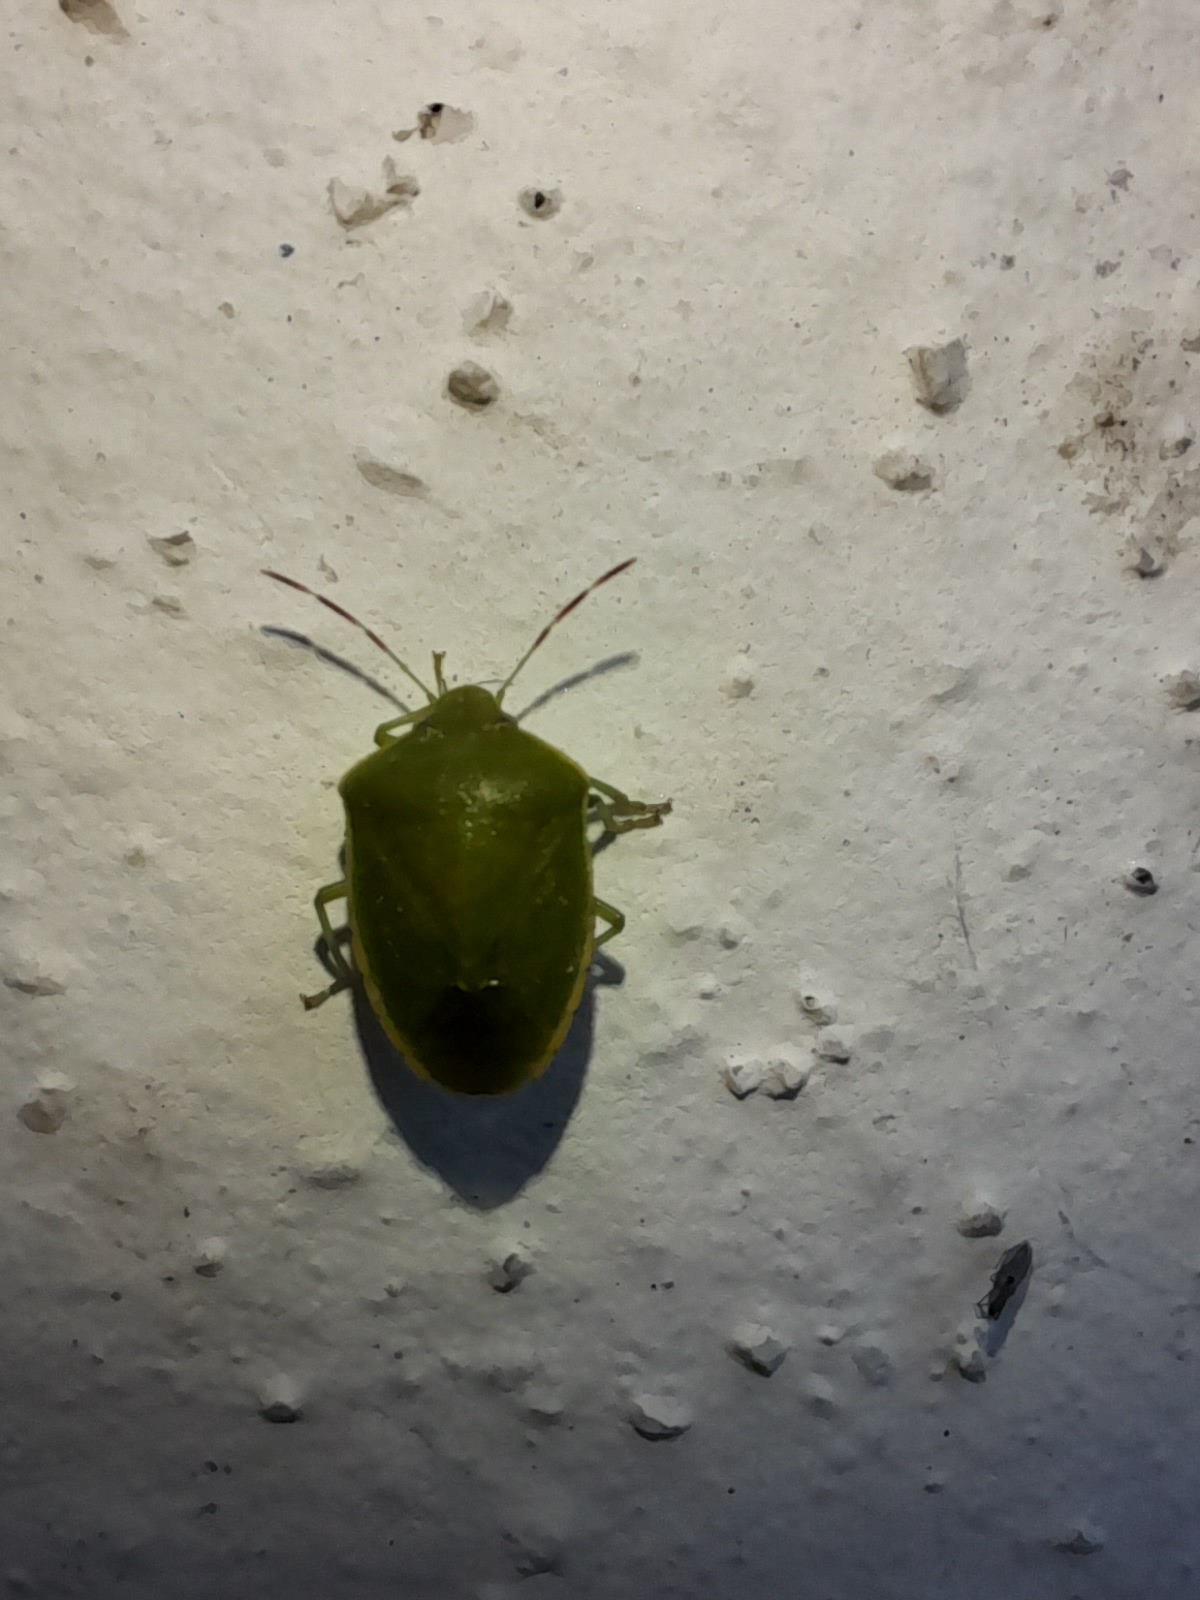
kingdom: Animalia
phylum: Arthropoda
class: Insecta
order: Hemiptera
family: Pentatomidae
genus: Acrosternum
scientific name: Acrosternum heegeri
